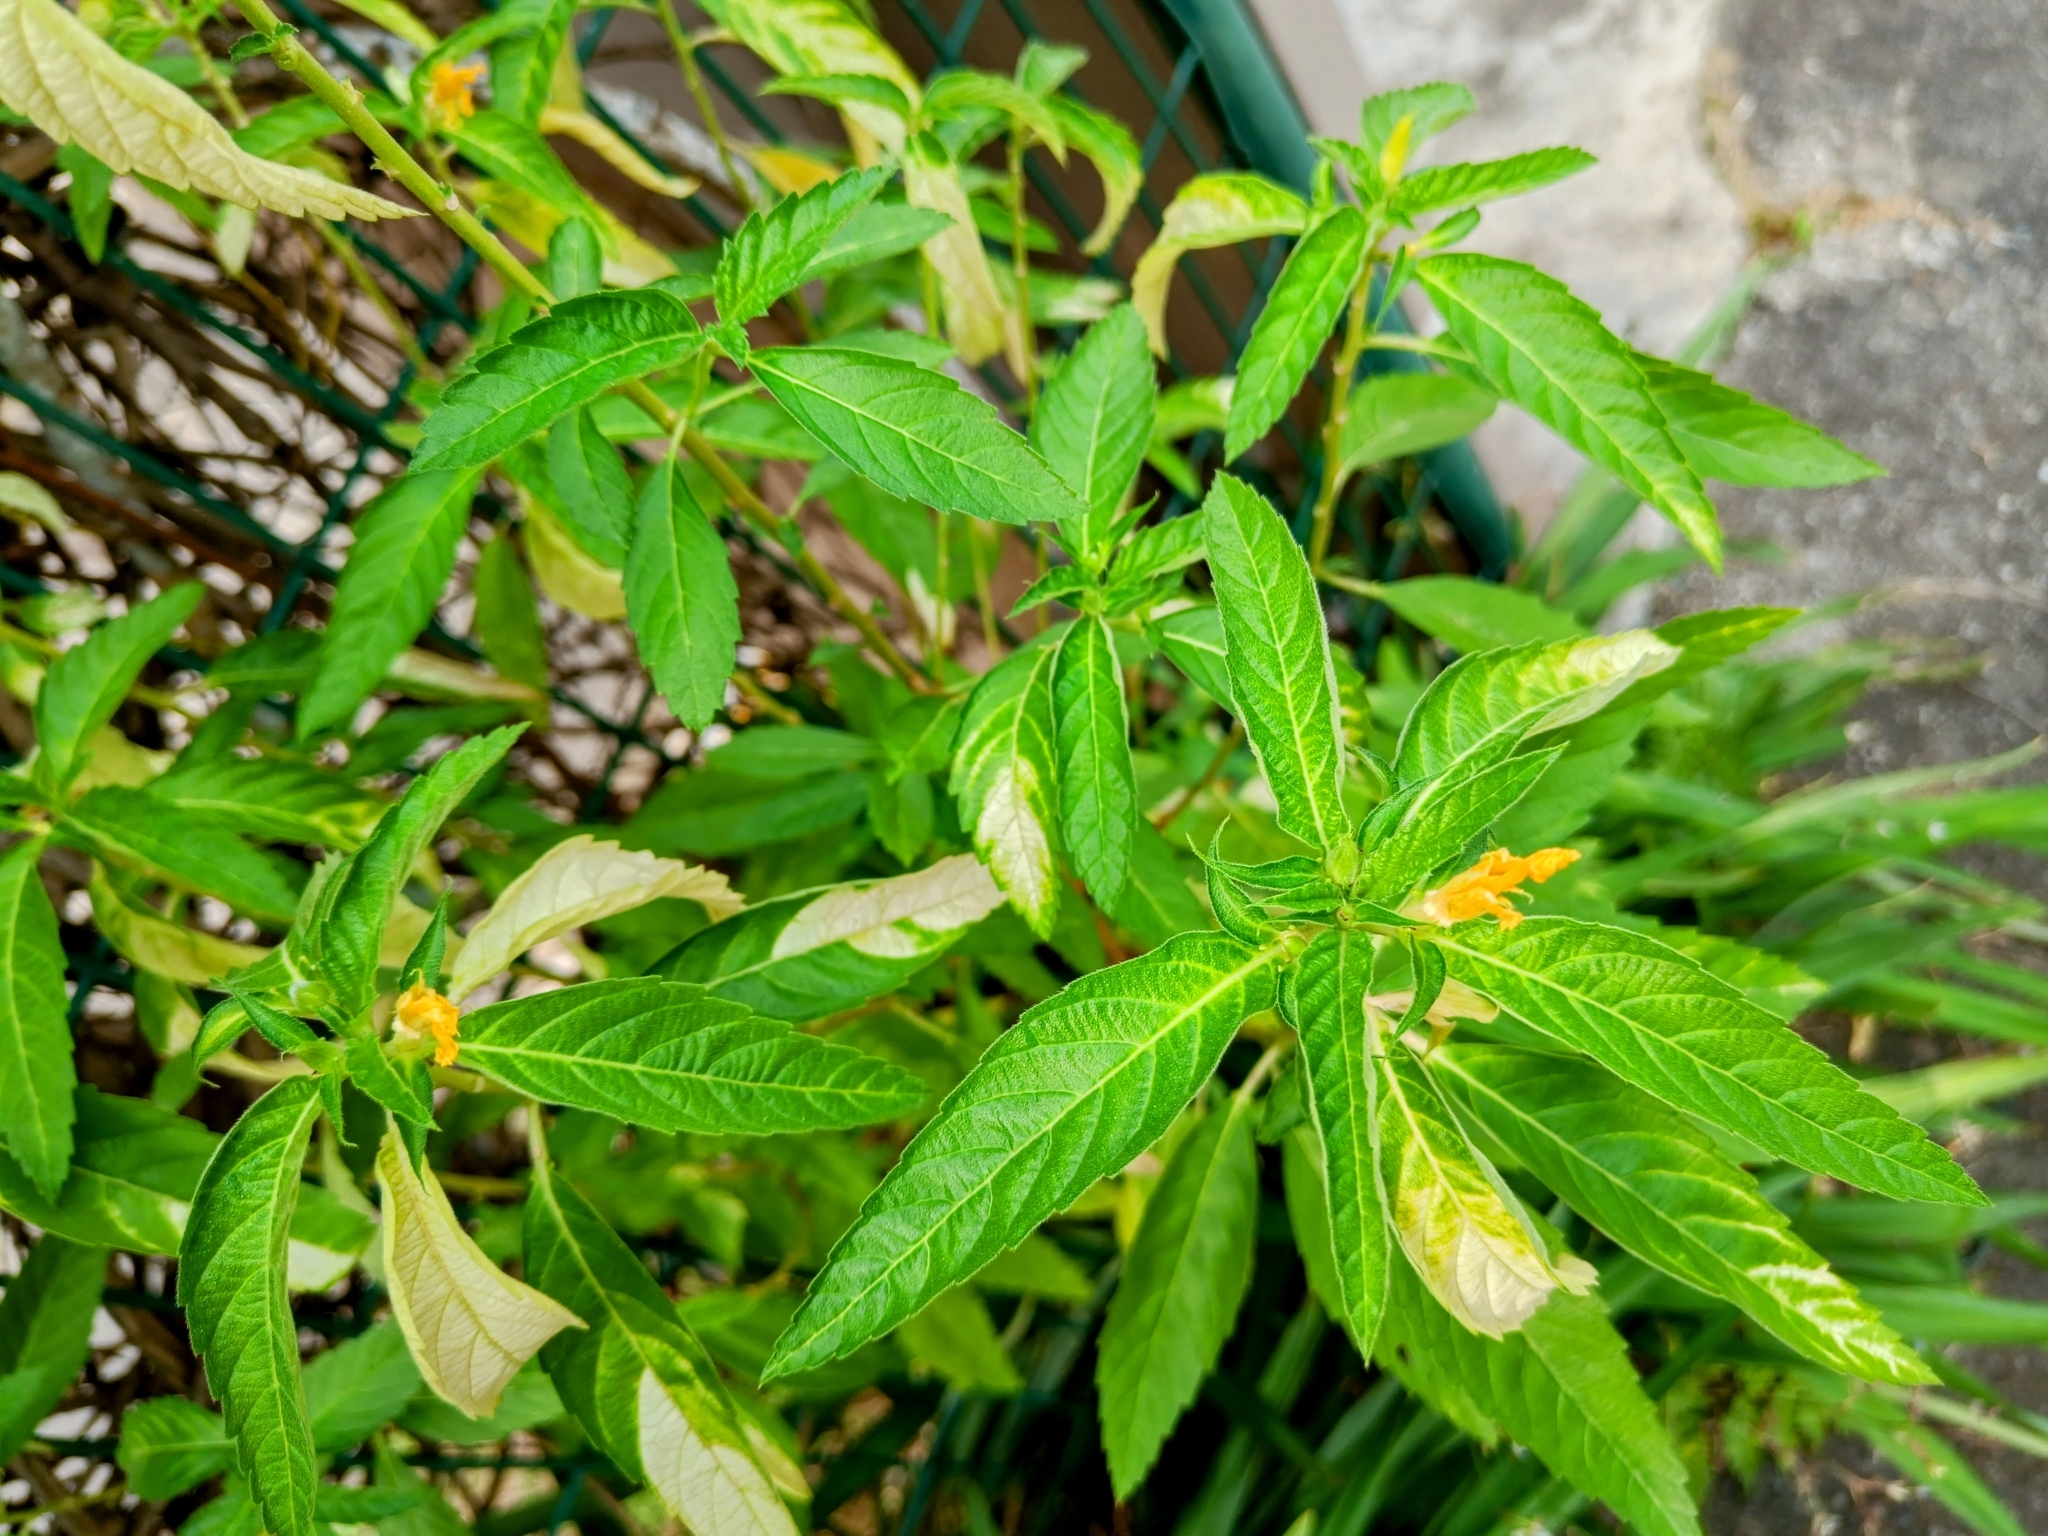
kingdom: Plantae
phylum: Tracheophyta
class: Magnoliopsida
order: Malpighiales
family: Turneraceae
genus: Turnera
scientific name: Turnera ulmifolia
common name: Ramgoat dashalong
